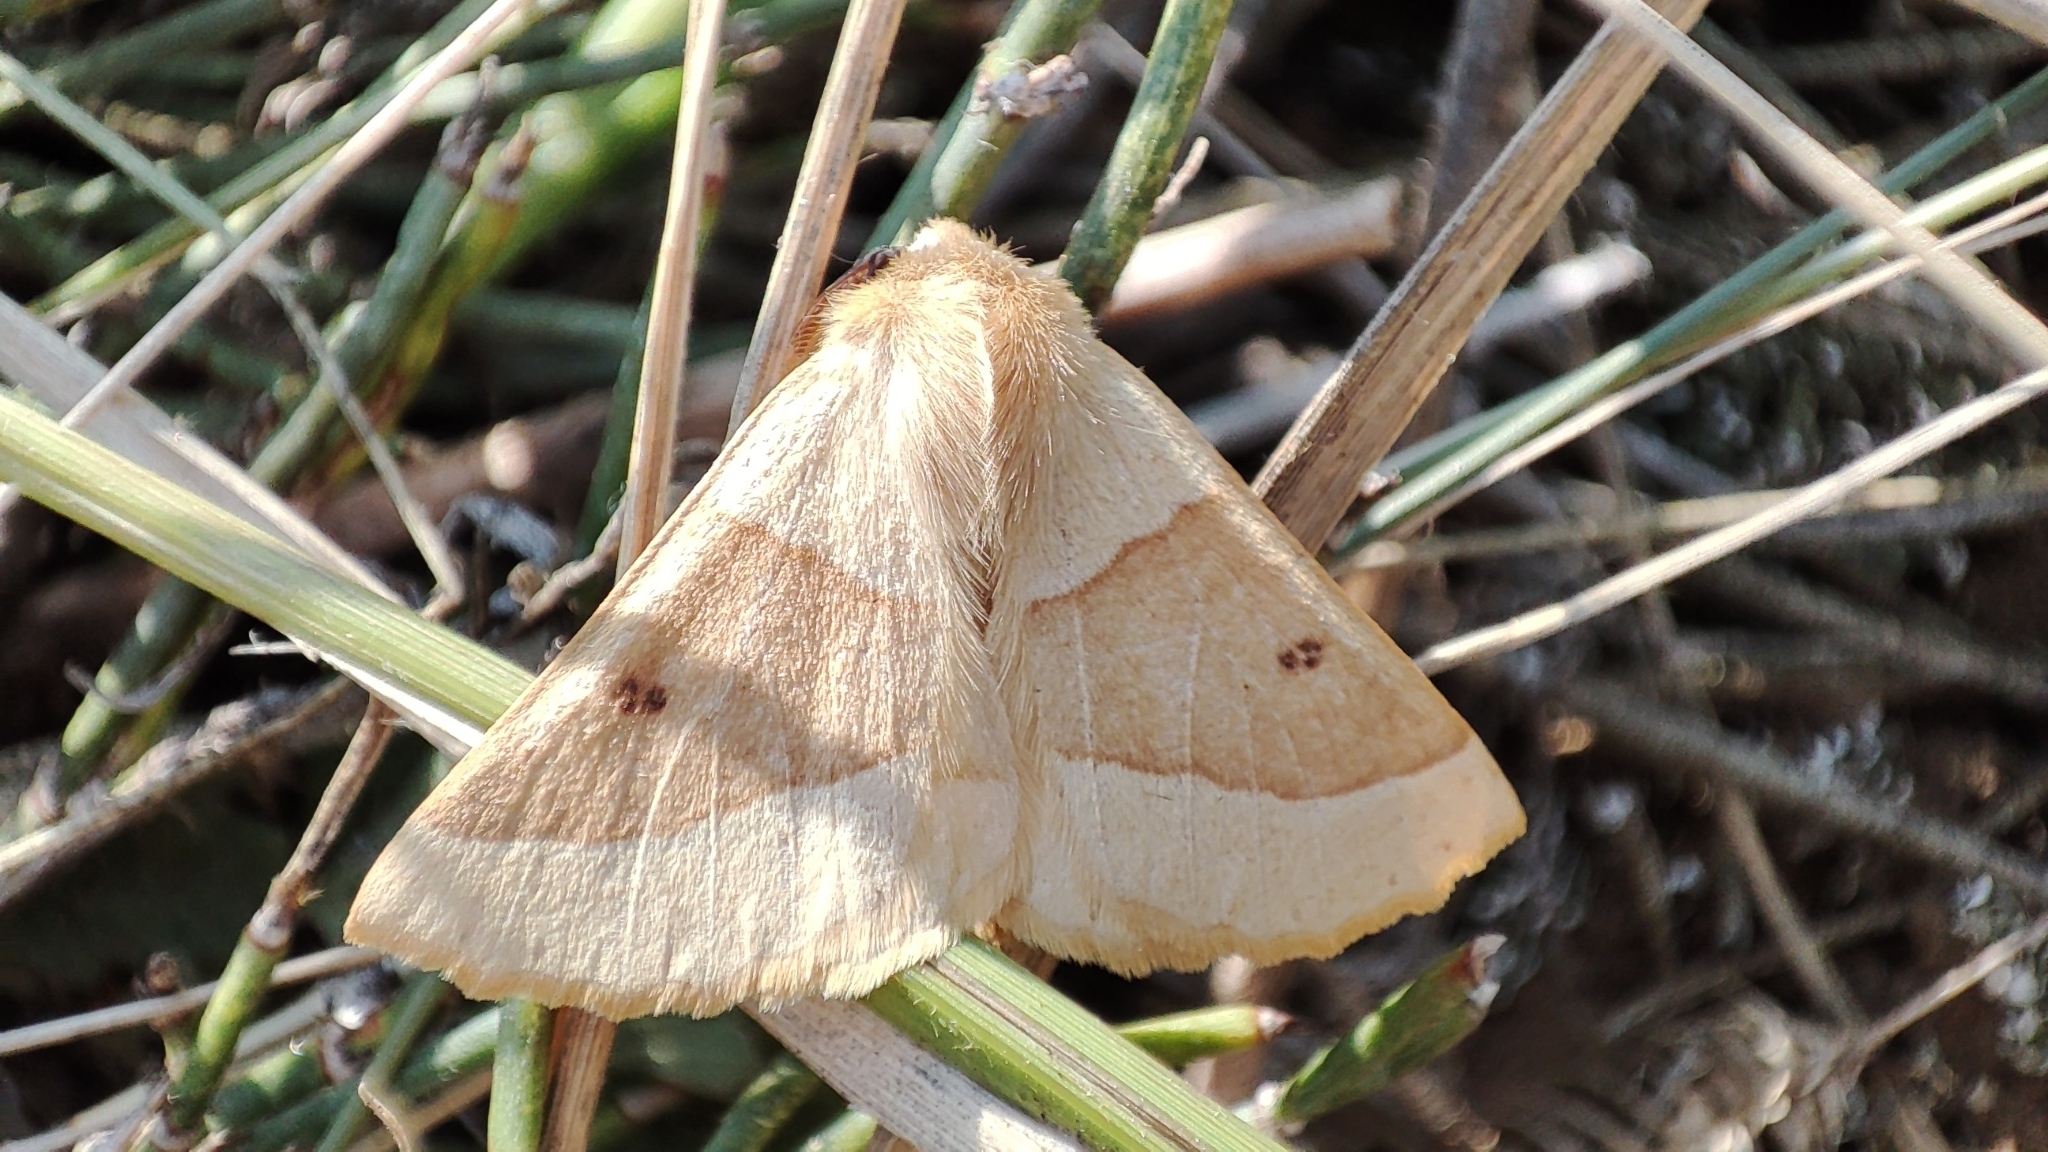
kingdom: Animalia
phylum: Arthropoda
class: Insecta
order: Lepidoptera
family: Geometridae
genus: Crocallis
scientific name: Crocallis elinguaria
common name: Scalloped oak
